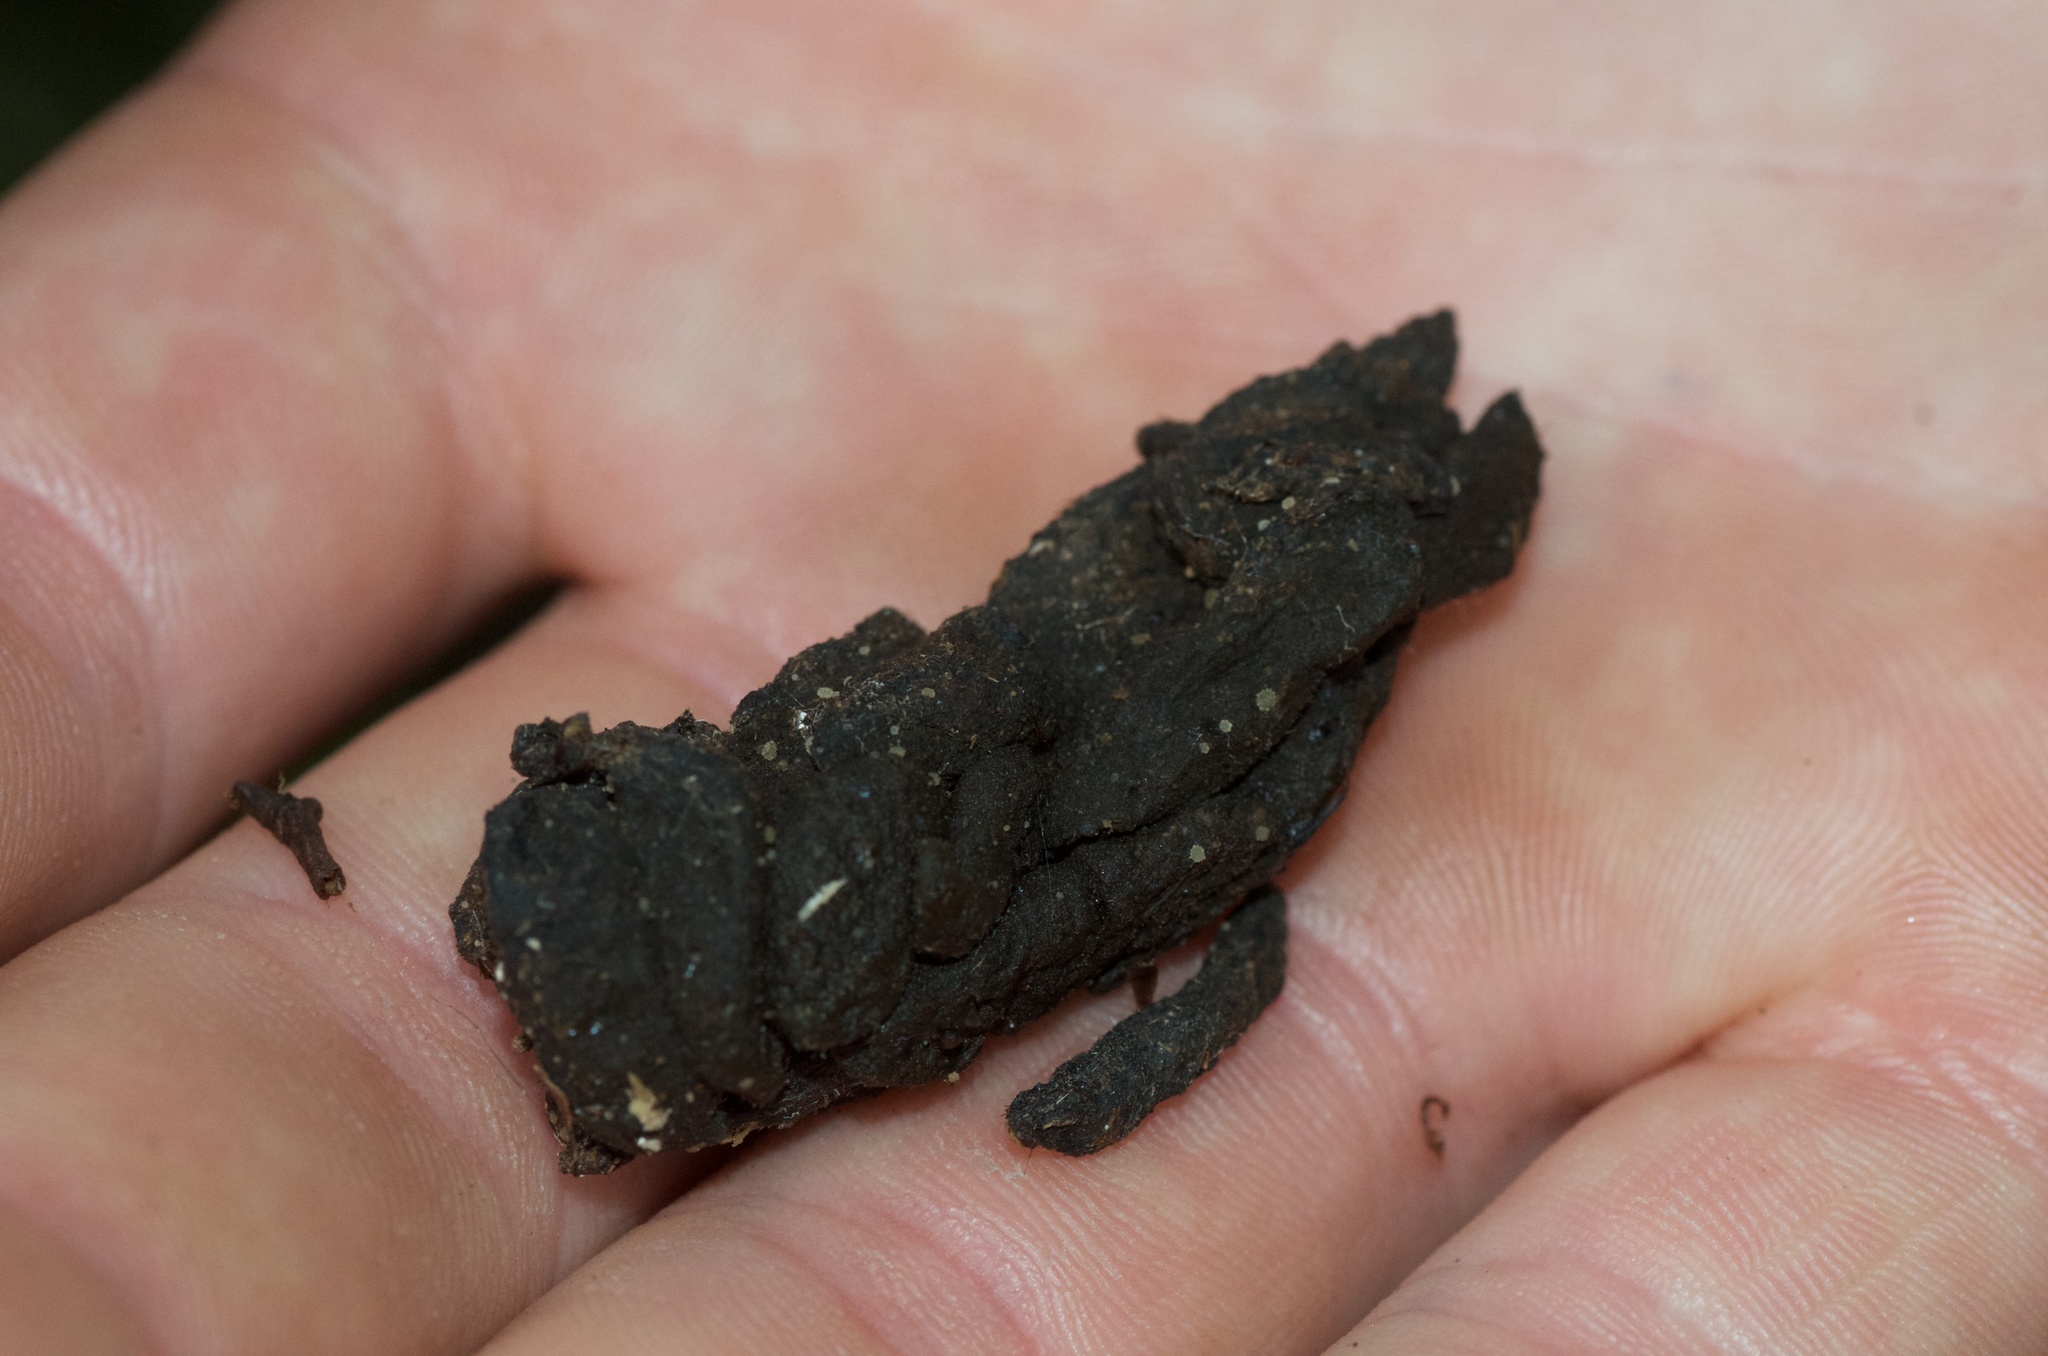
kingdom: Animalia
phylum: Chordata
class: Mammalia
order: Diprotodontia
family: Phalangeridae
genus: Trichosurus
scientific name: Trichosurus vulpecula
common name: Common brushtail
